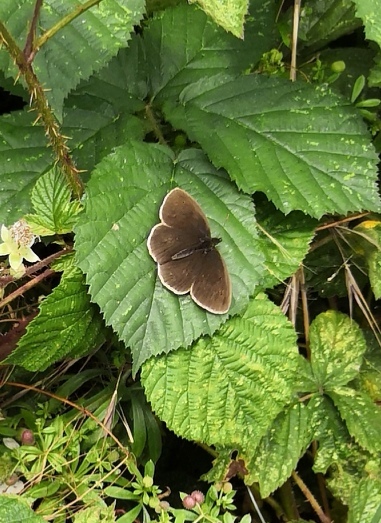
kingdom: Animalia
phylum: Arthropoda
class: Insecta
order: Lepidoptera
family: Nymphalidae
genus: Aphantopus
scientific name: Aphantopus hyperantus
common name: Ringlet
